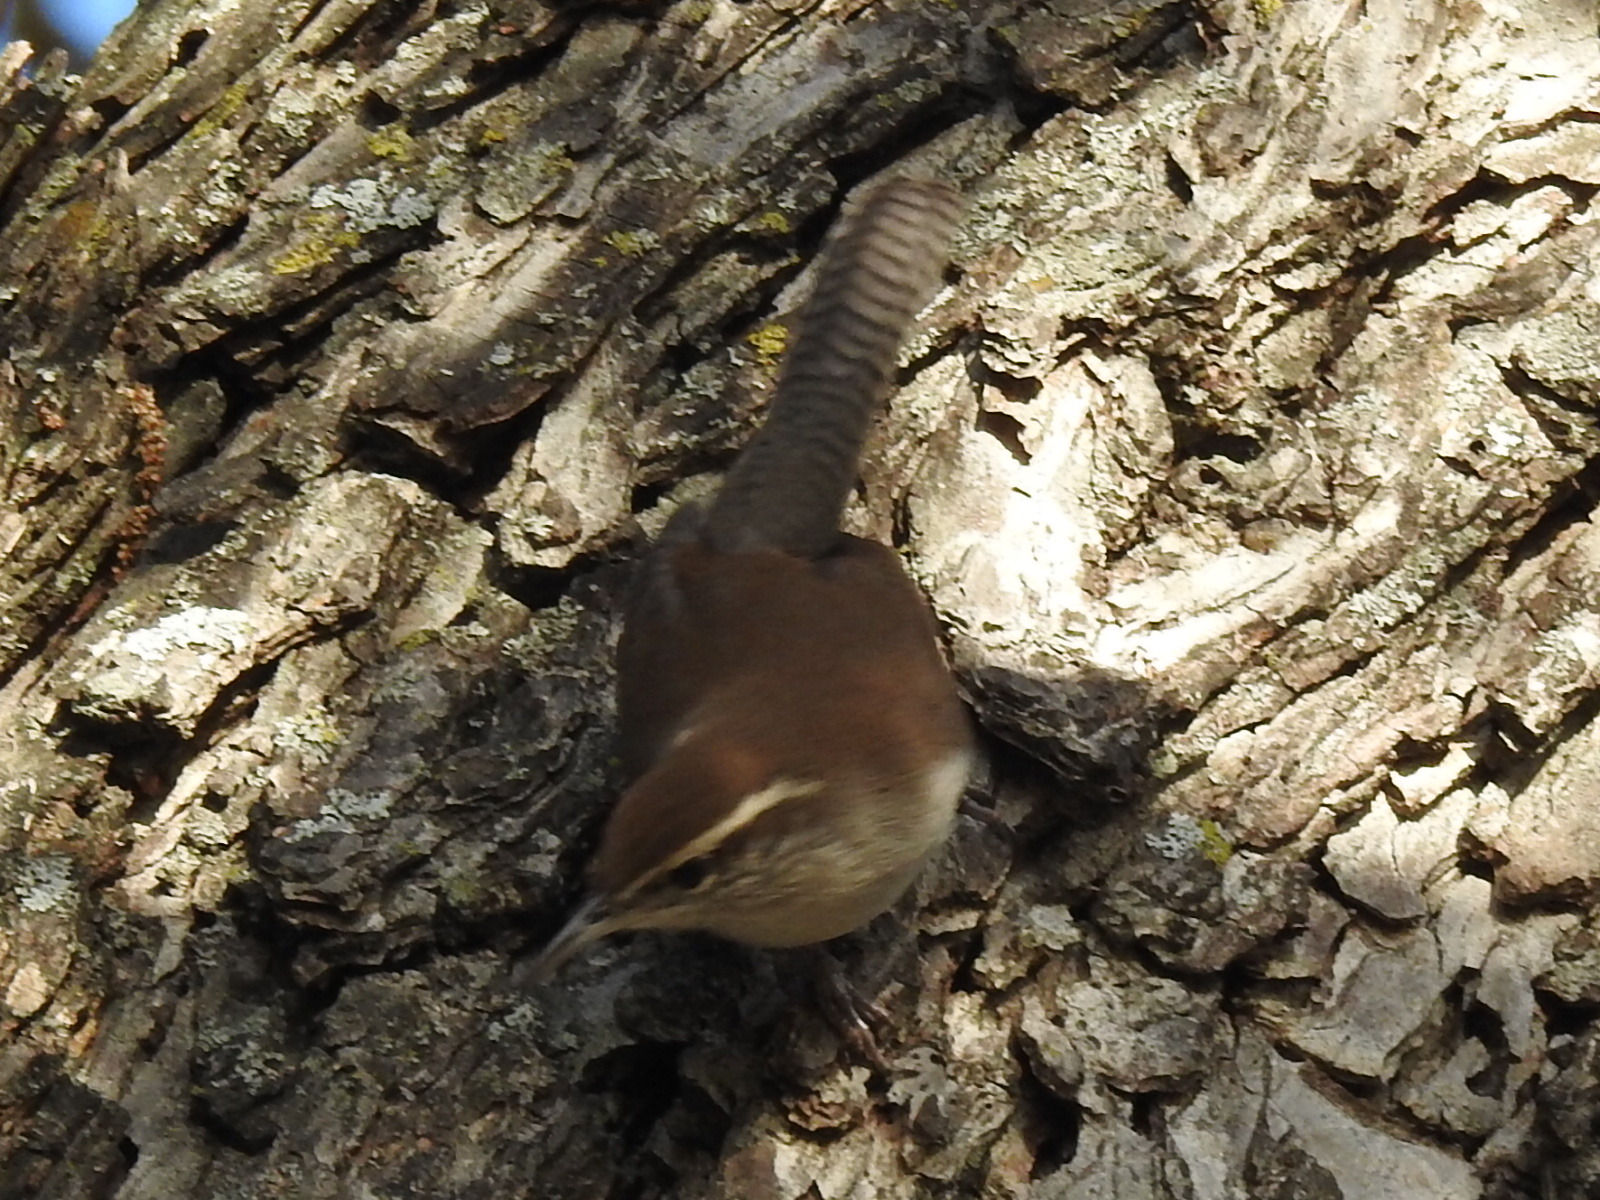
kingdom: Animalia
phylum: Chordata
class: Aves
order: Passeriformes
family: Troglodytidae
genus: Thryomanes
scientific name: Thryomanes bewickii
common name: Bewick's wren
